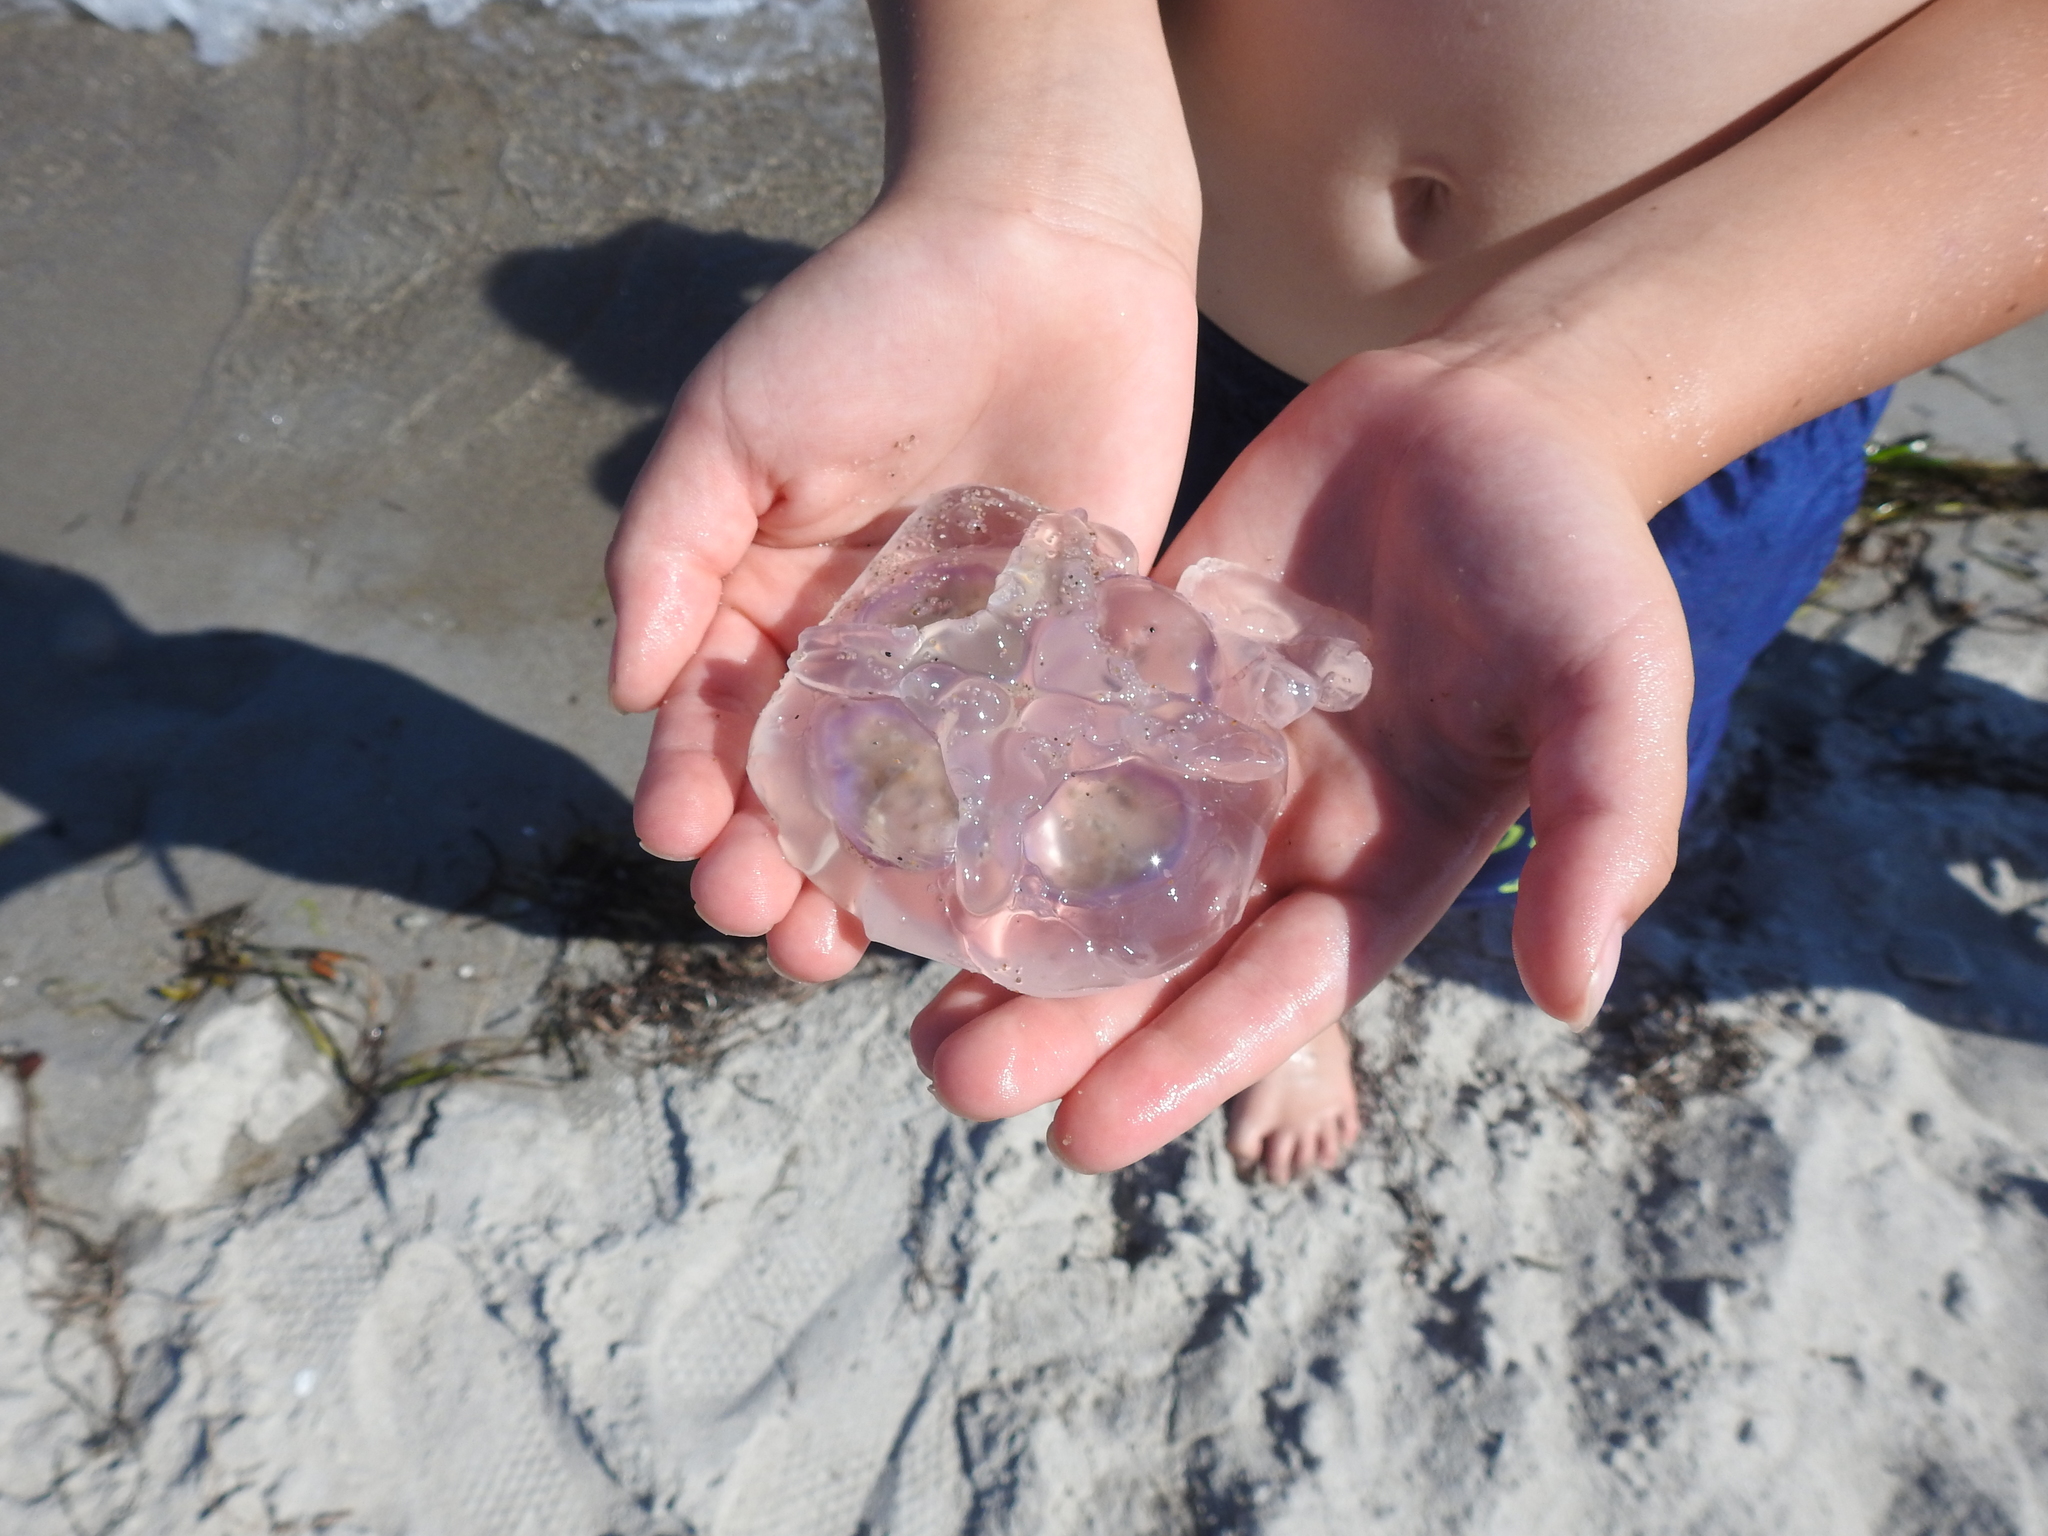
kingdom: Animalia
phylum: Cnidaria
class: Scyphozoa
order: Semaeostomeae
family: Ulmaridae
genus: Aurelia
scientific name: Aurelia aurita
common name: Moon jellyfish
